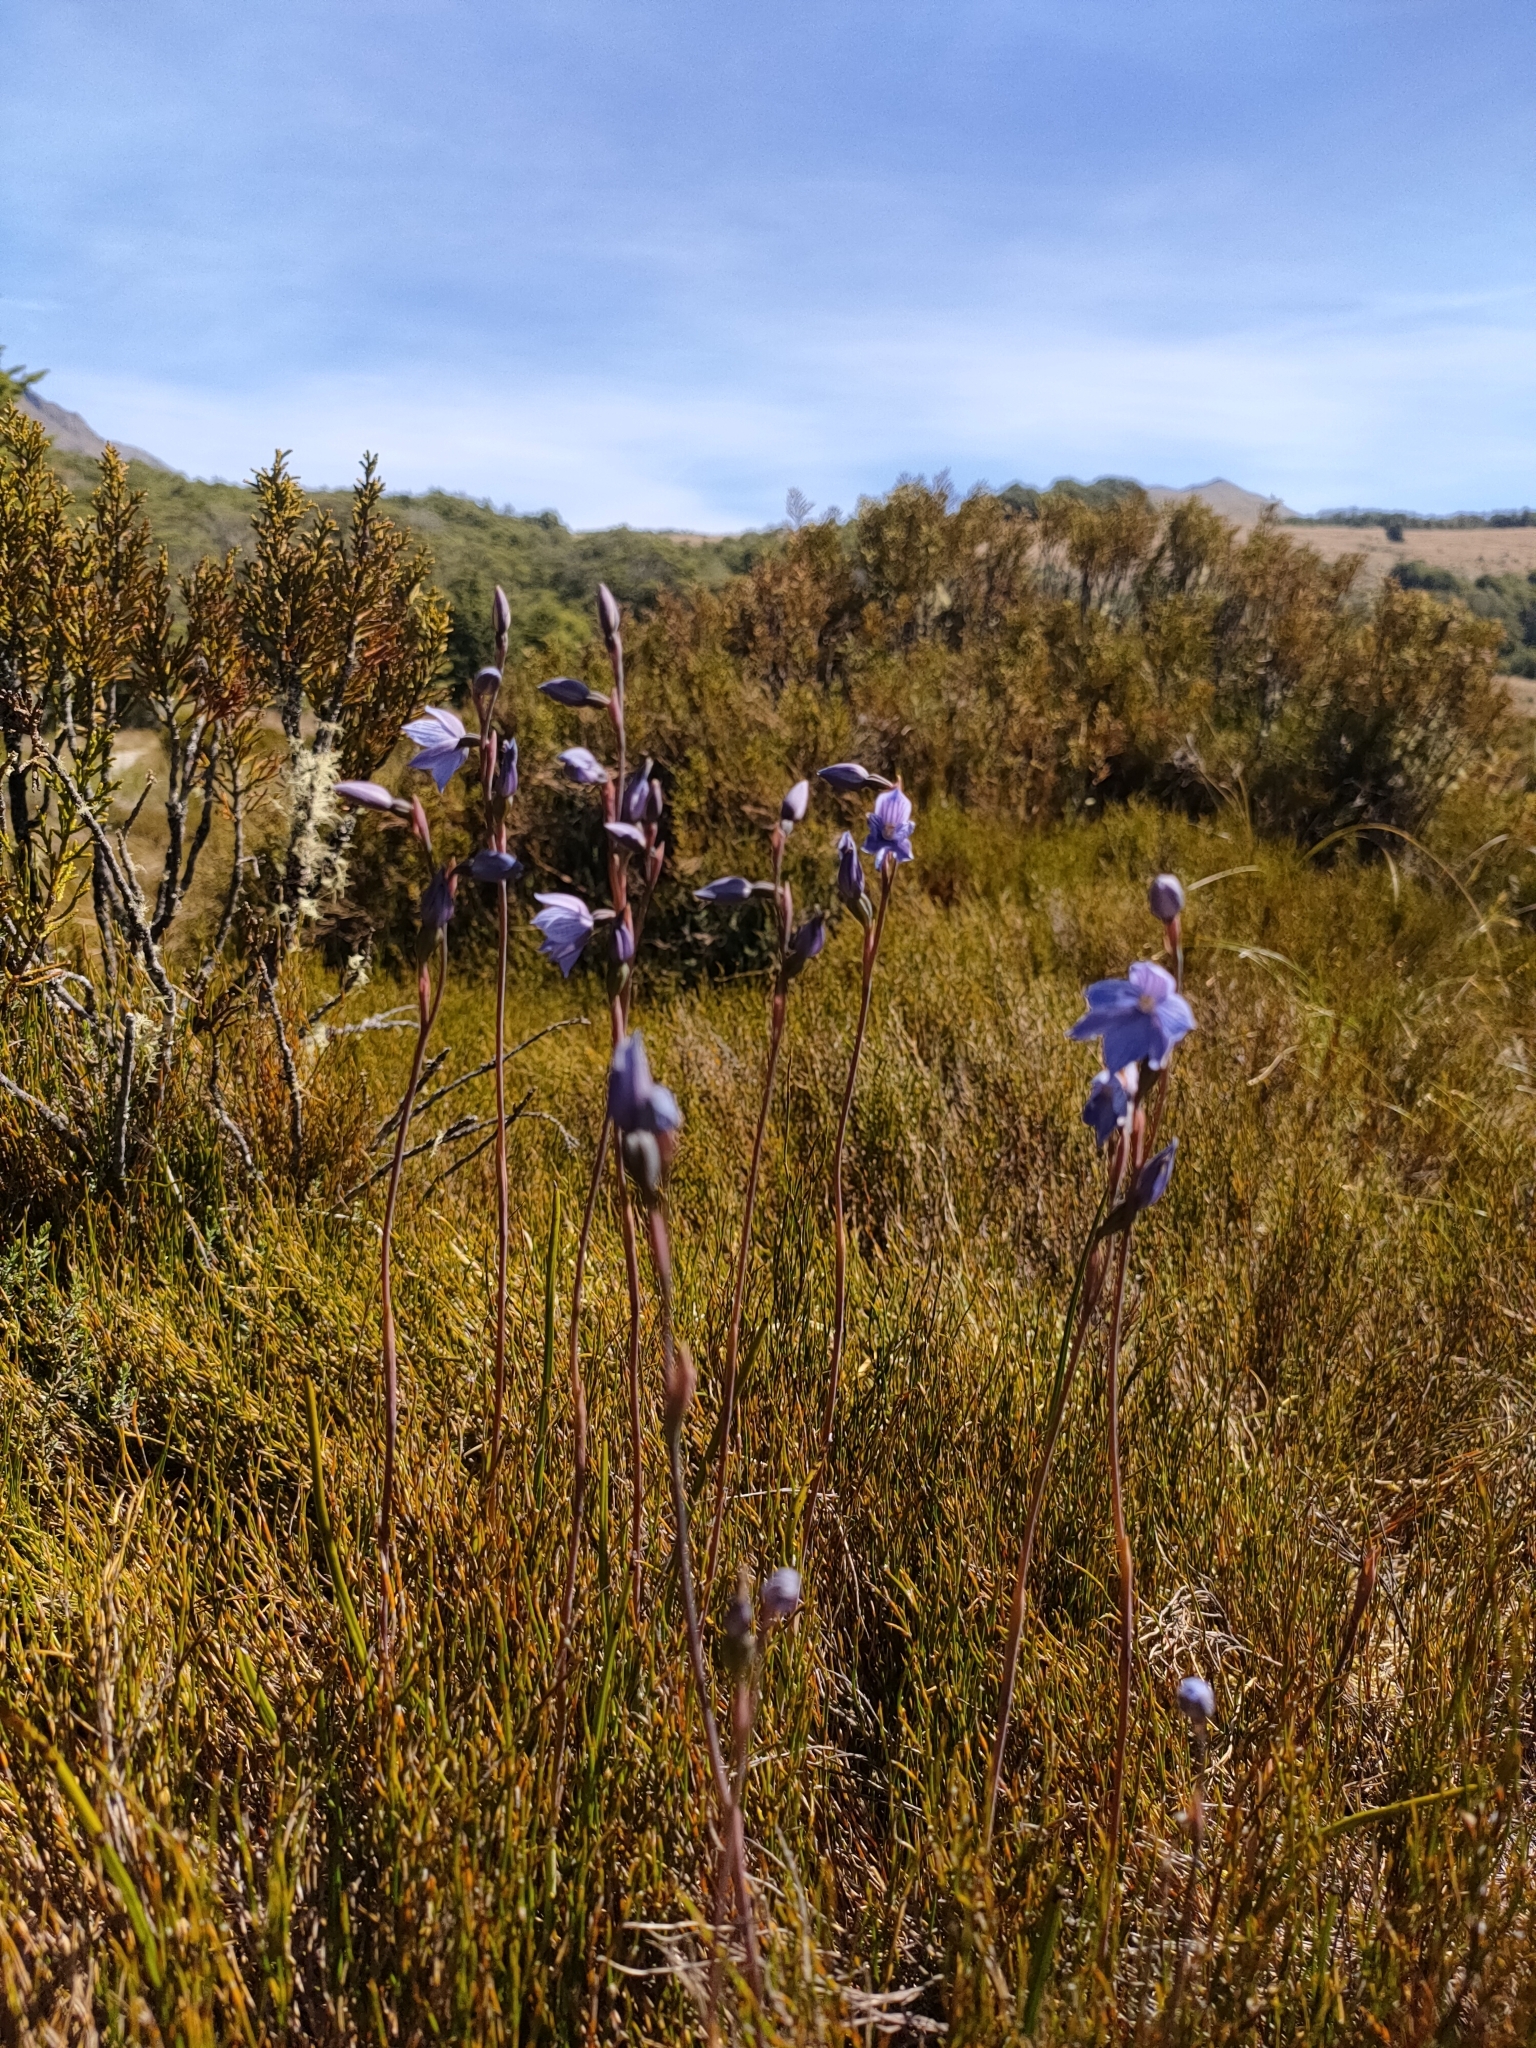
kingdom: Plantae
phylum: Tracheophyta
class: Liliopsida
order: Asparagales
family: Orchidaceae
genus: Thelymitra
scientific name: Thelymitra cyanea
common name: Blue sun-orchid
